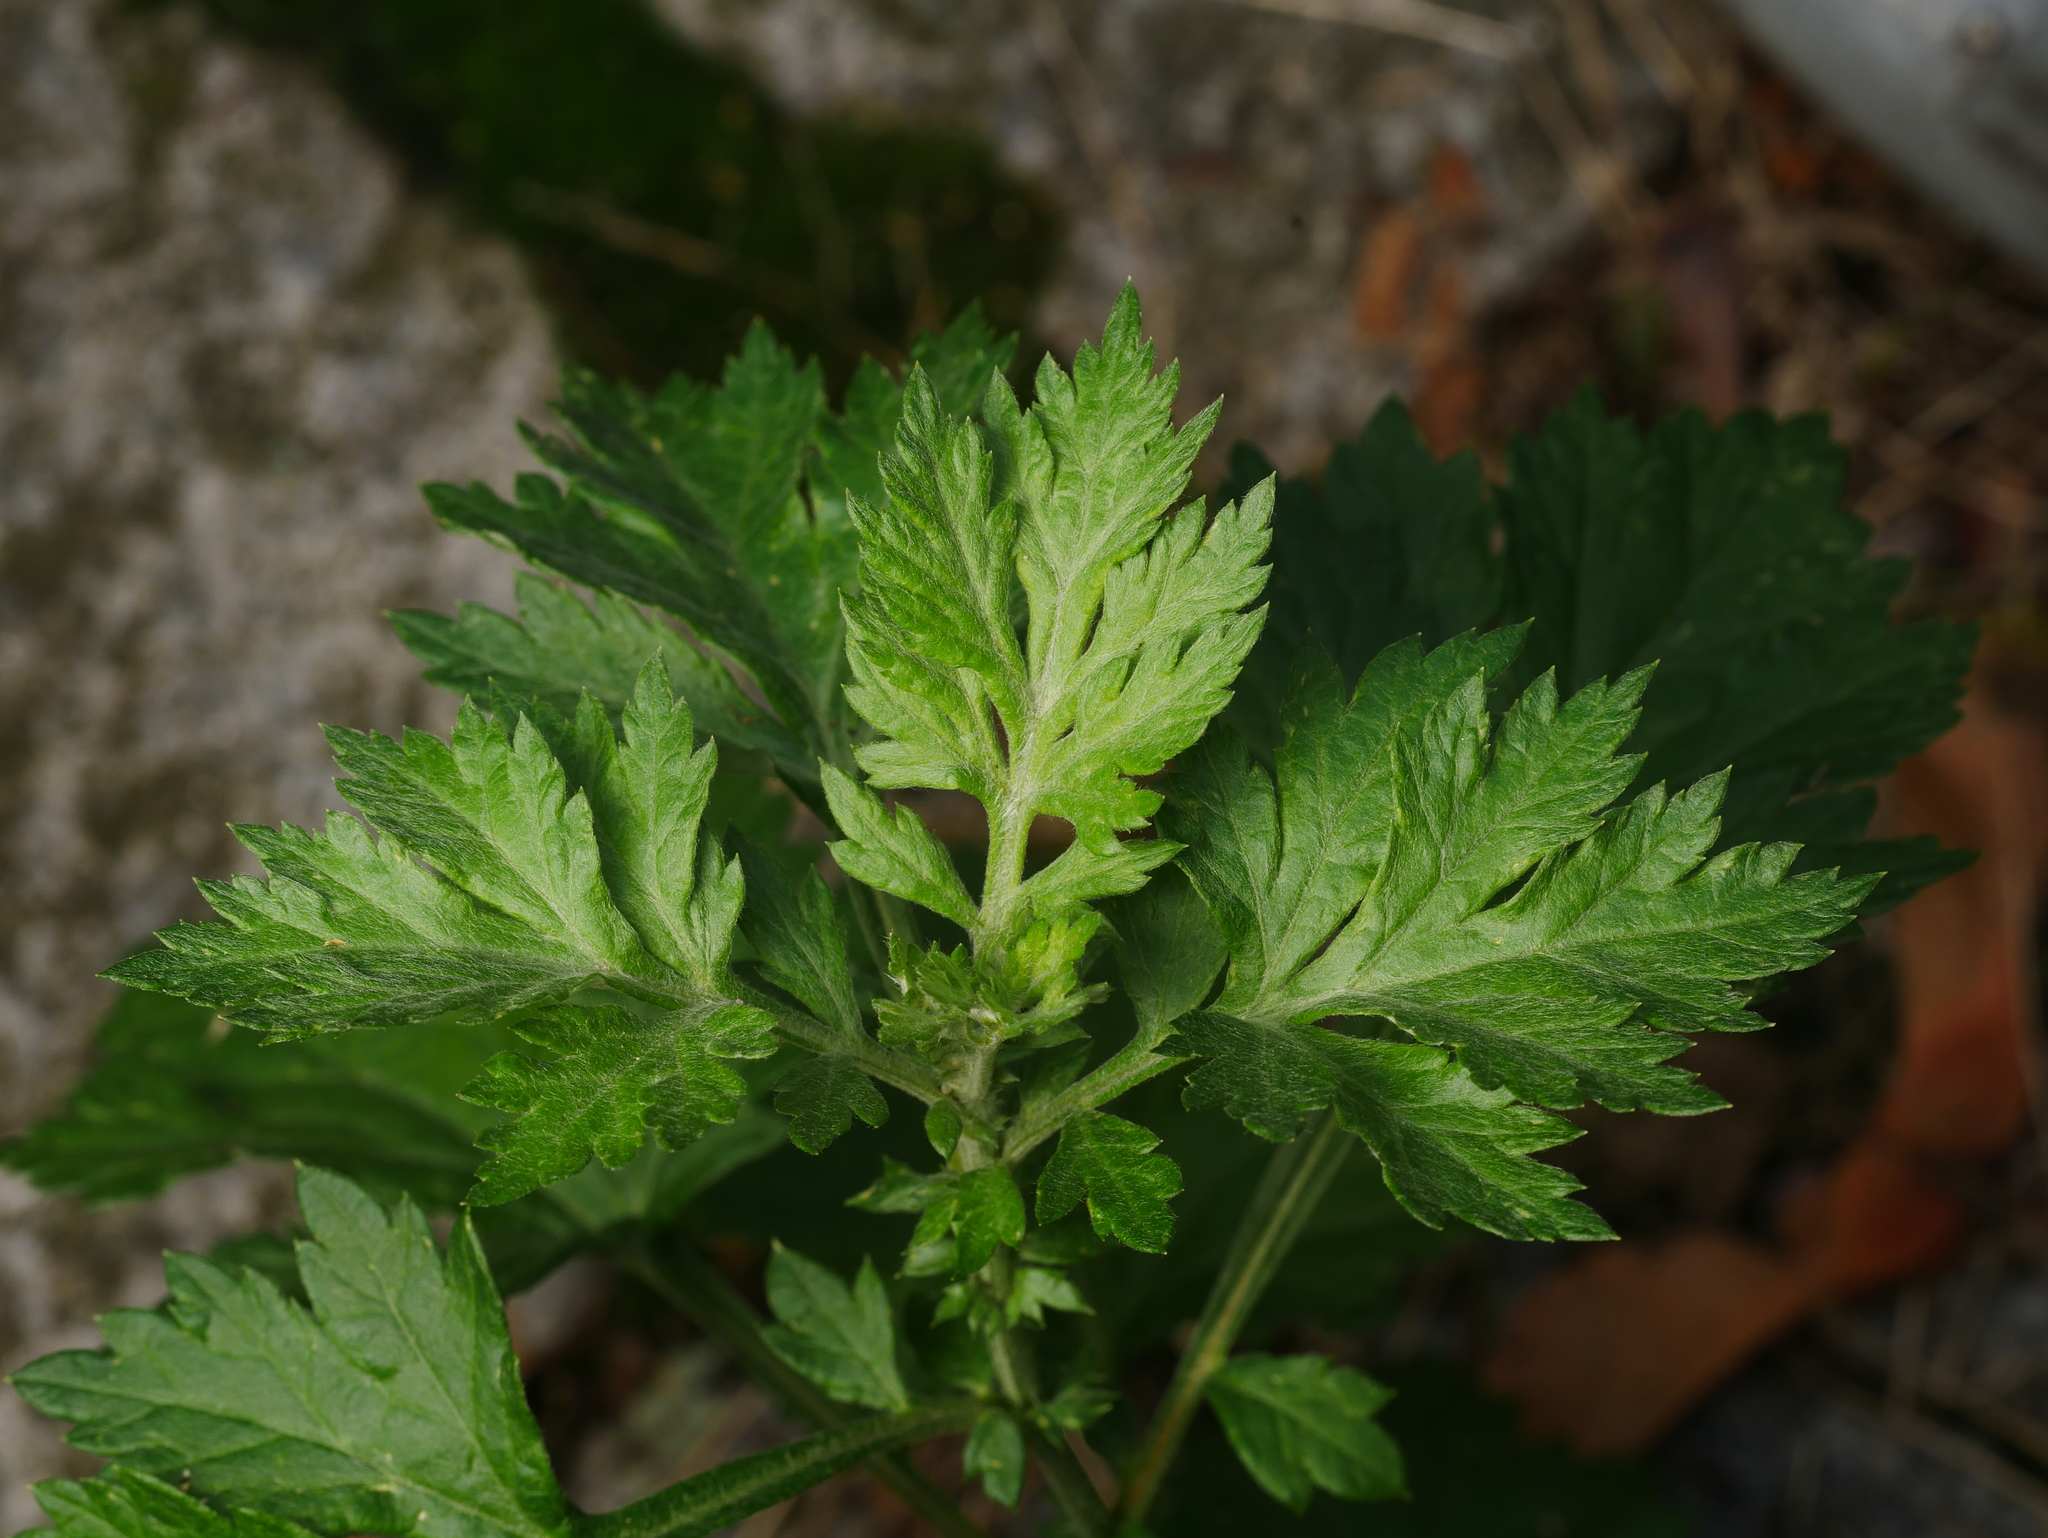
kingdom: Plantae
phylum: Tracheophyta
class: Magnoliopsida
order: Asterales
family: Asteraceae
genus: Artemisia
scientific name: Artemisia vulgaris
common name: Mugwort
